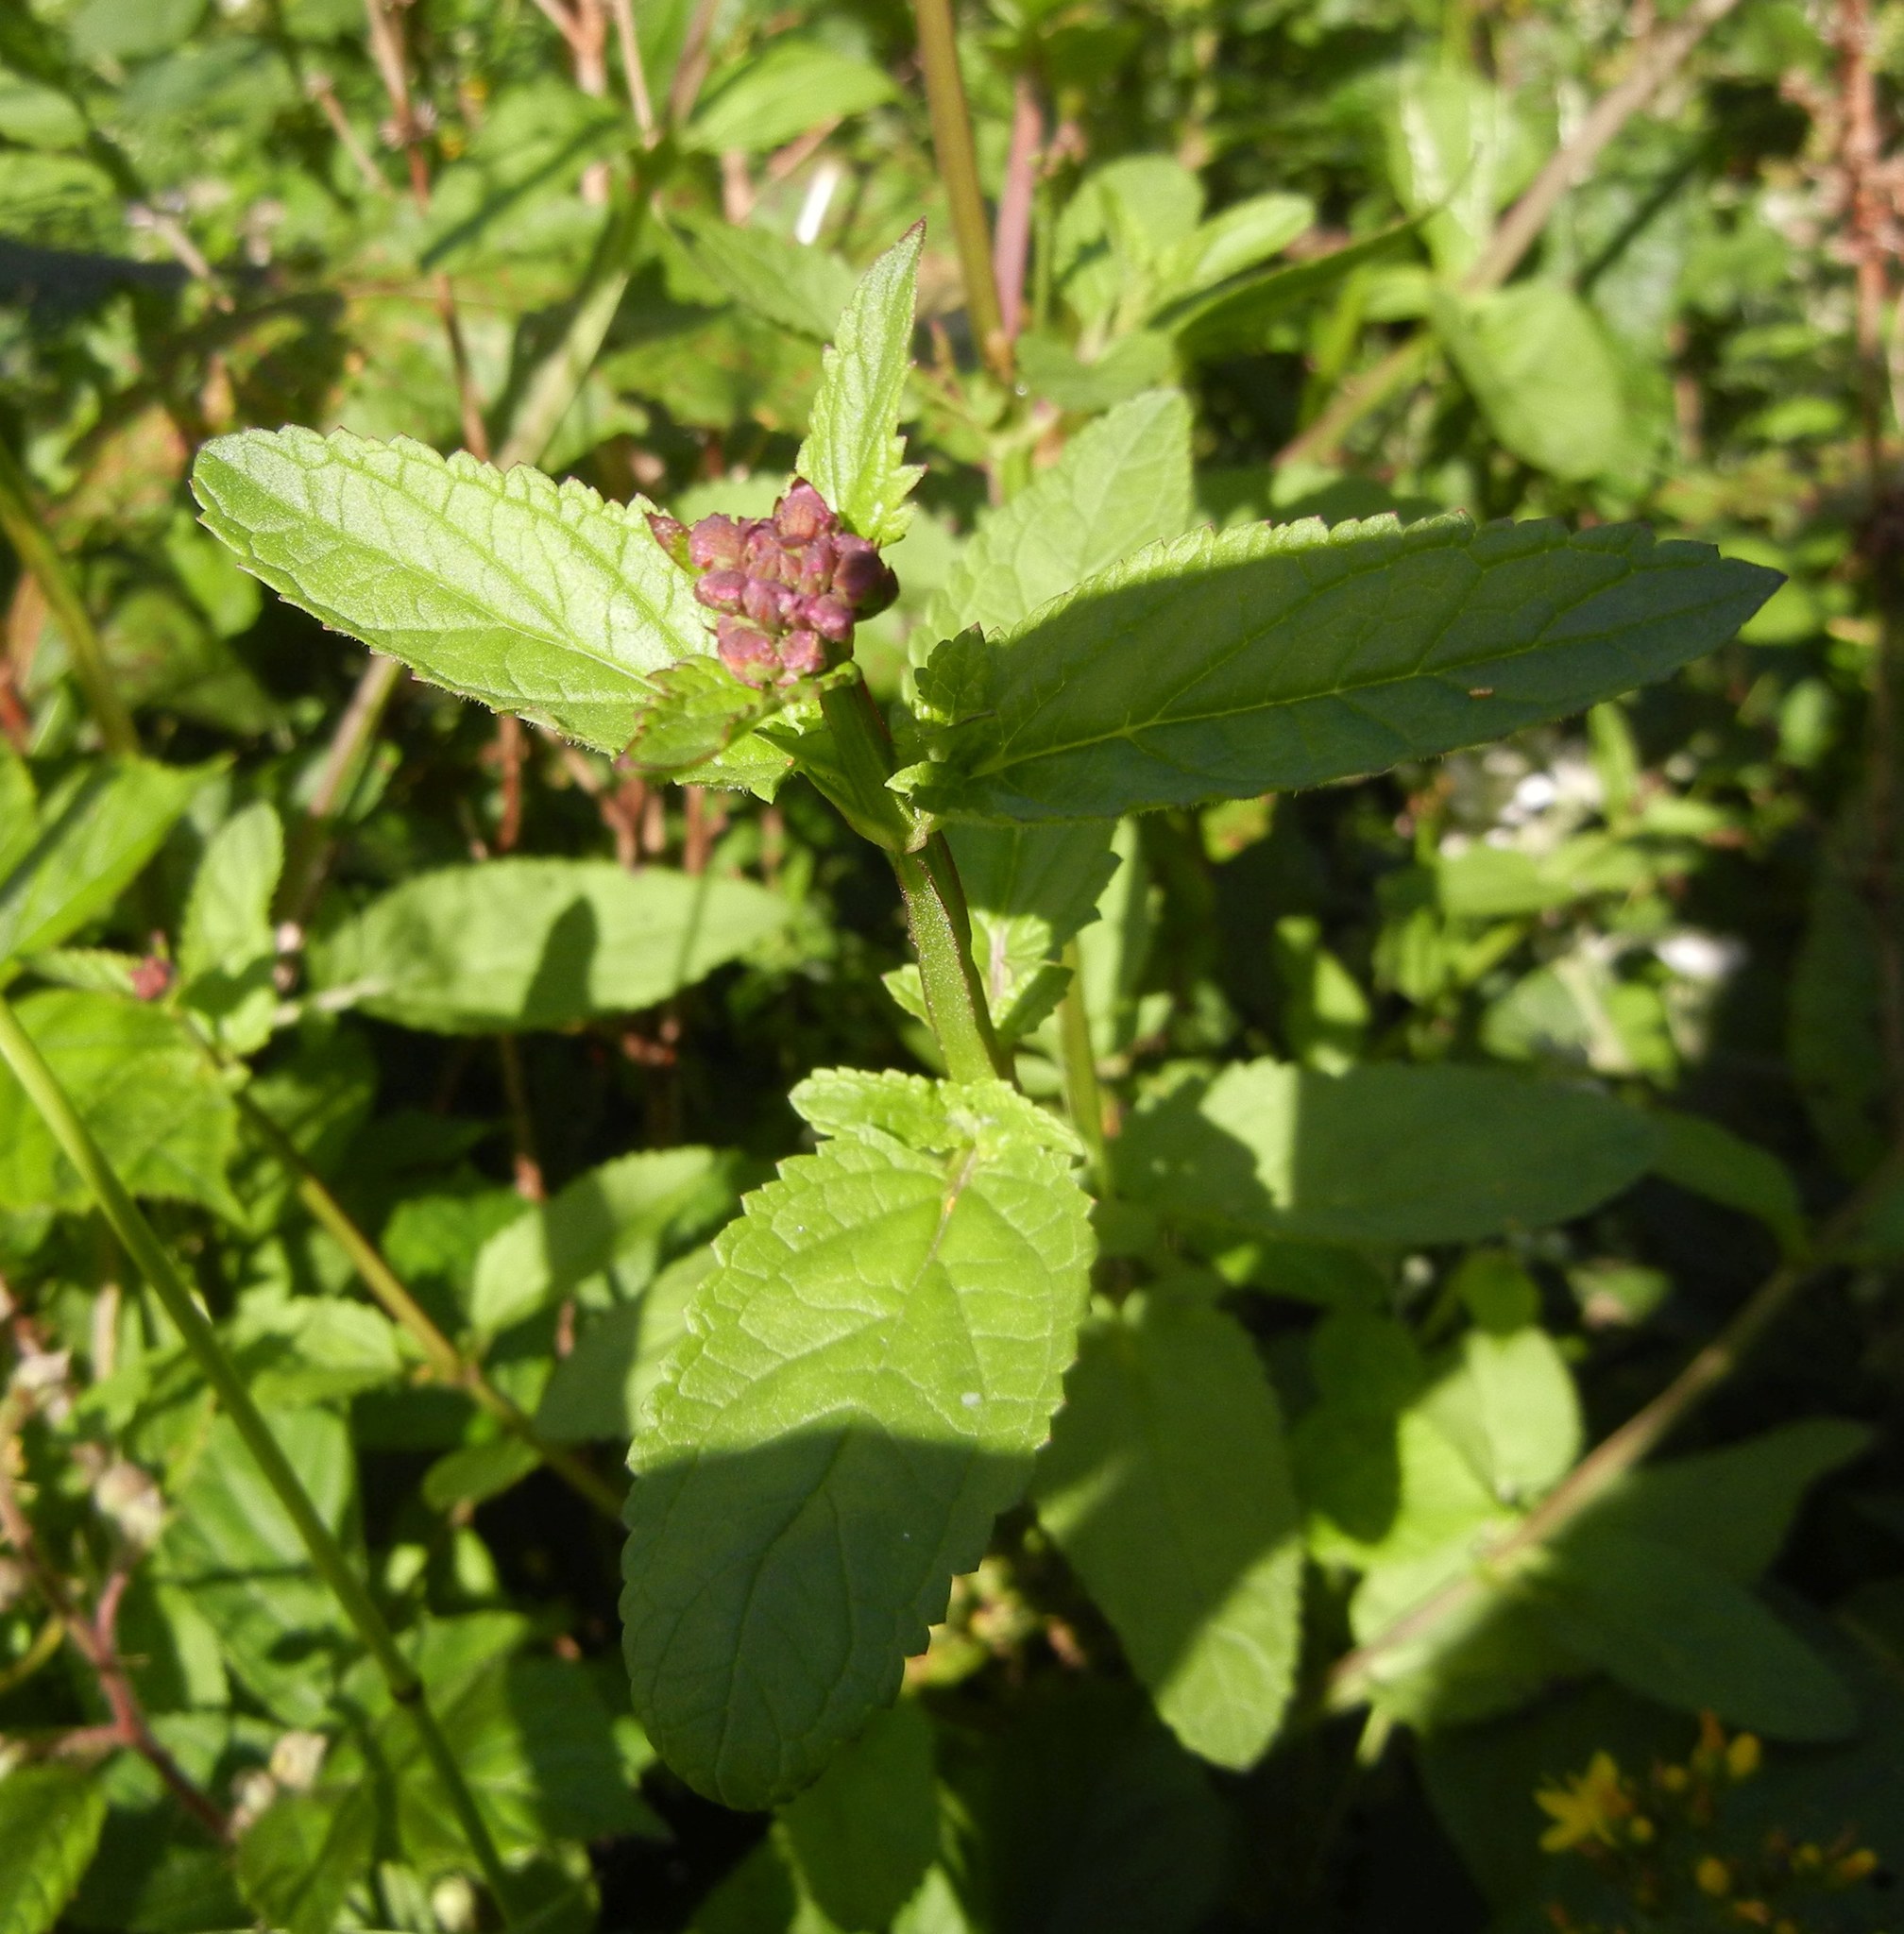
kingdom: Plantae
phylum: Tracheophyta
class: Magnoliopsida
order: Lamiales
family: Scrophulariaceae
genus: Scrophularia
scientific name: Scrophularia auriculata
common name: Water betony
